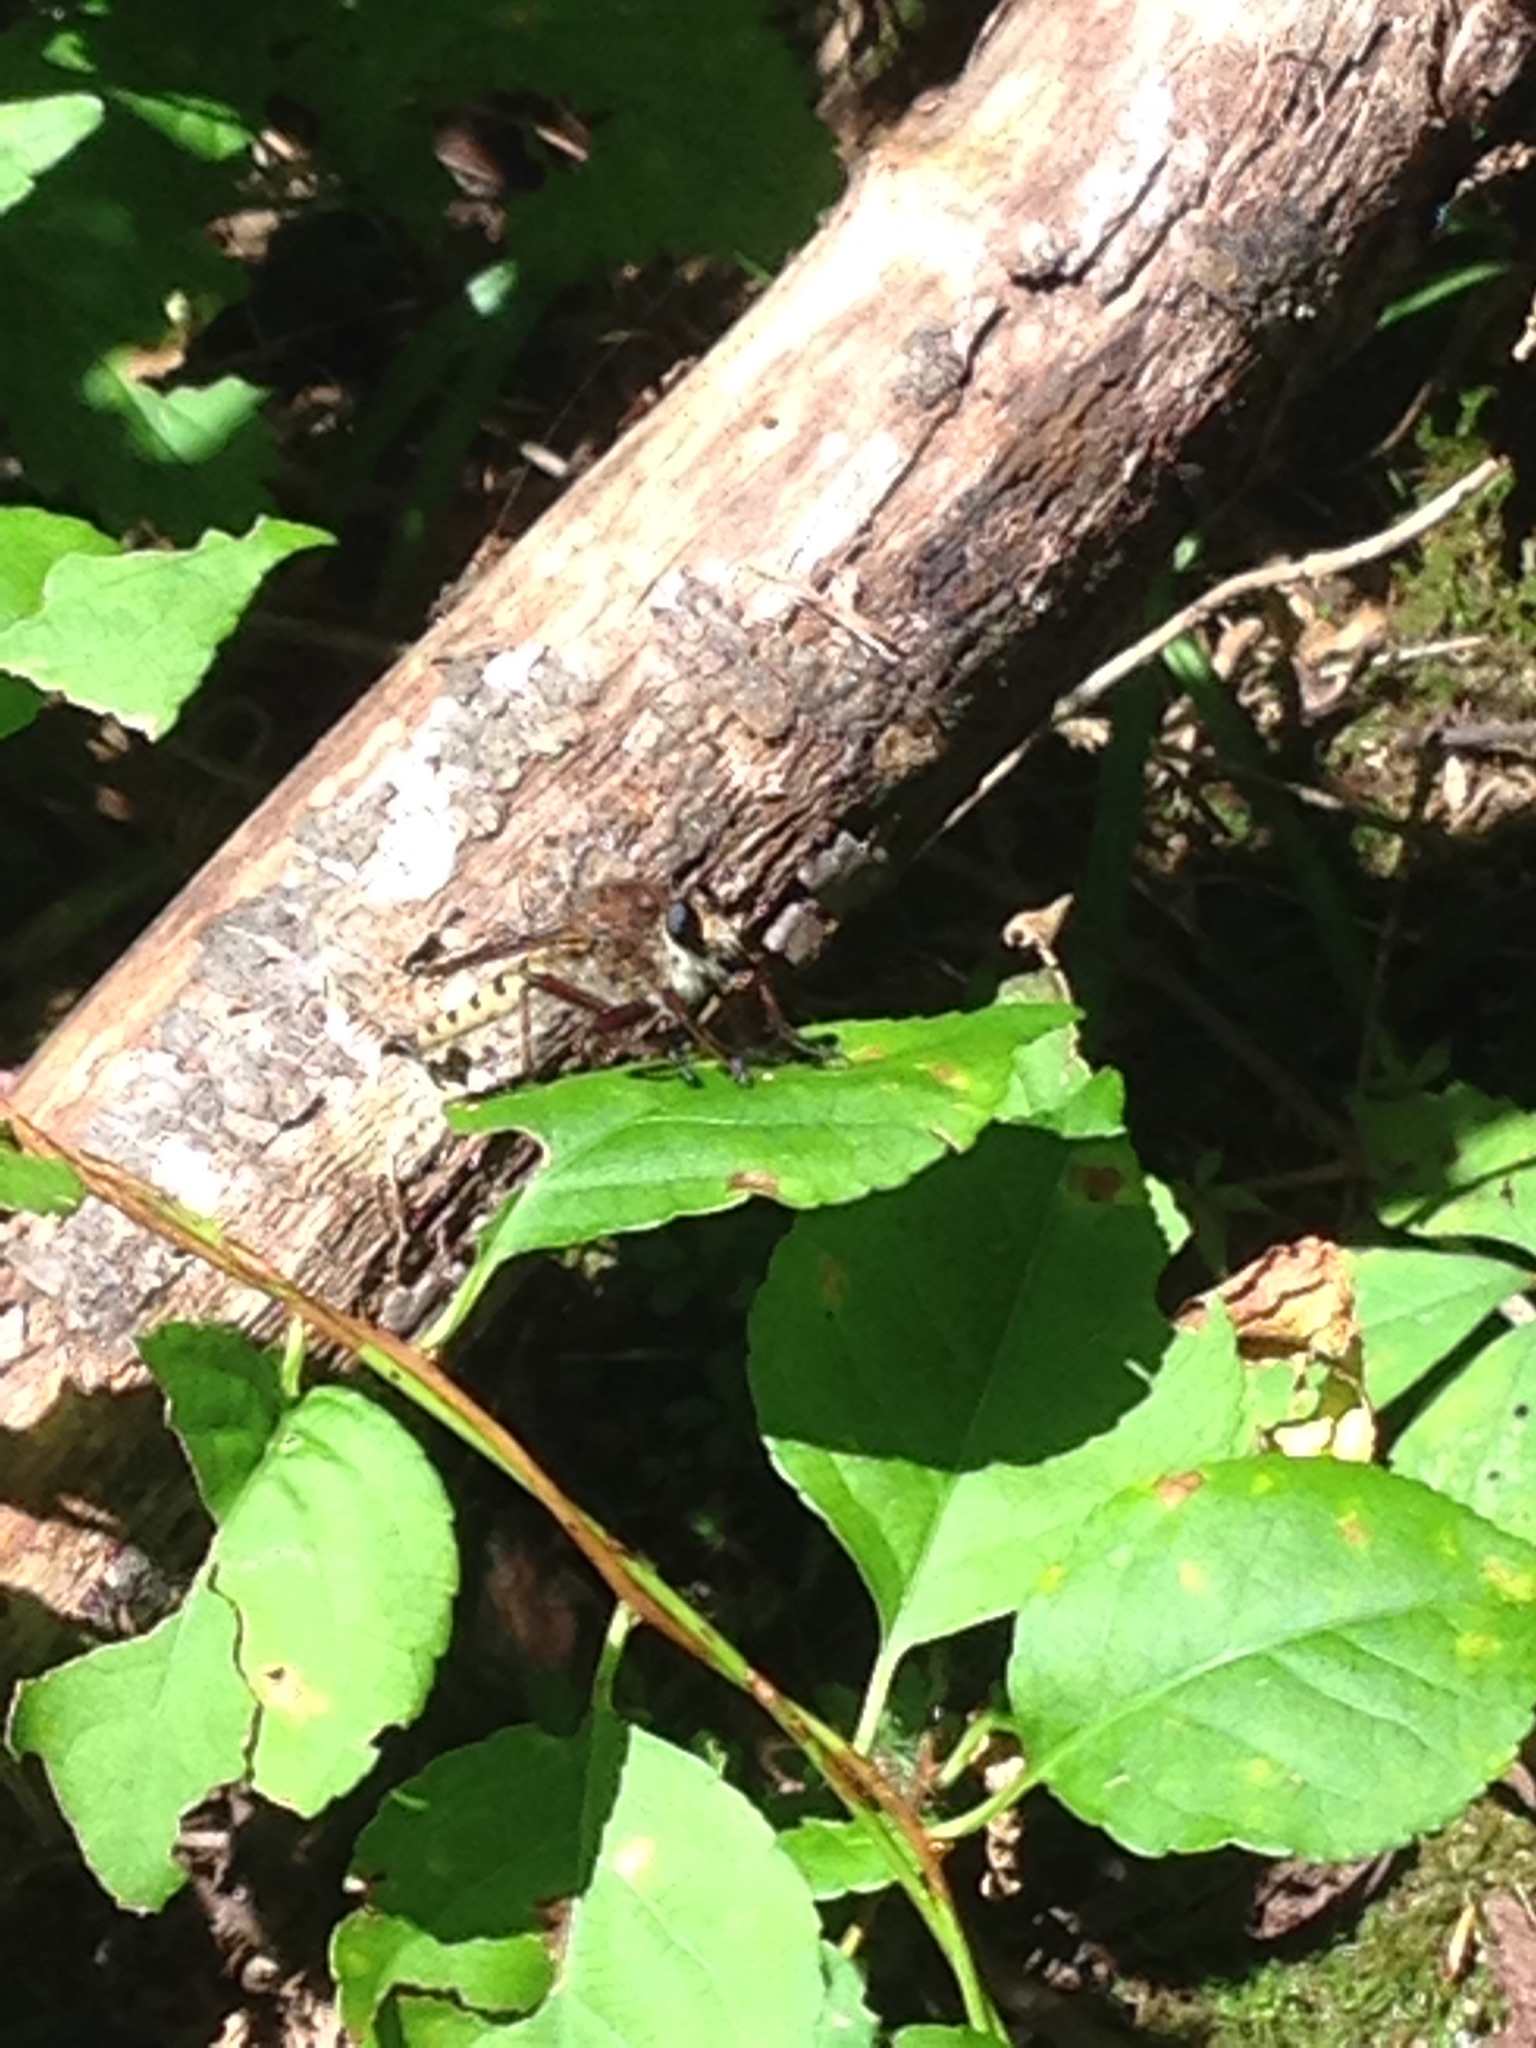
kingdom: Animalia
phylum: Arthropoda
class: Insecta
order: Diptera
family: Asilidae
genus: Promachus
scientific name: Promachus hinei
